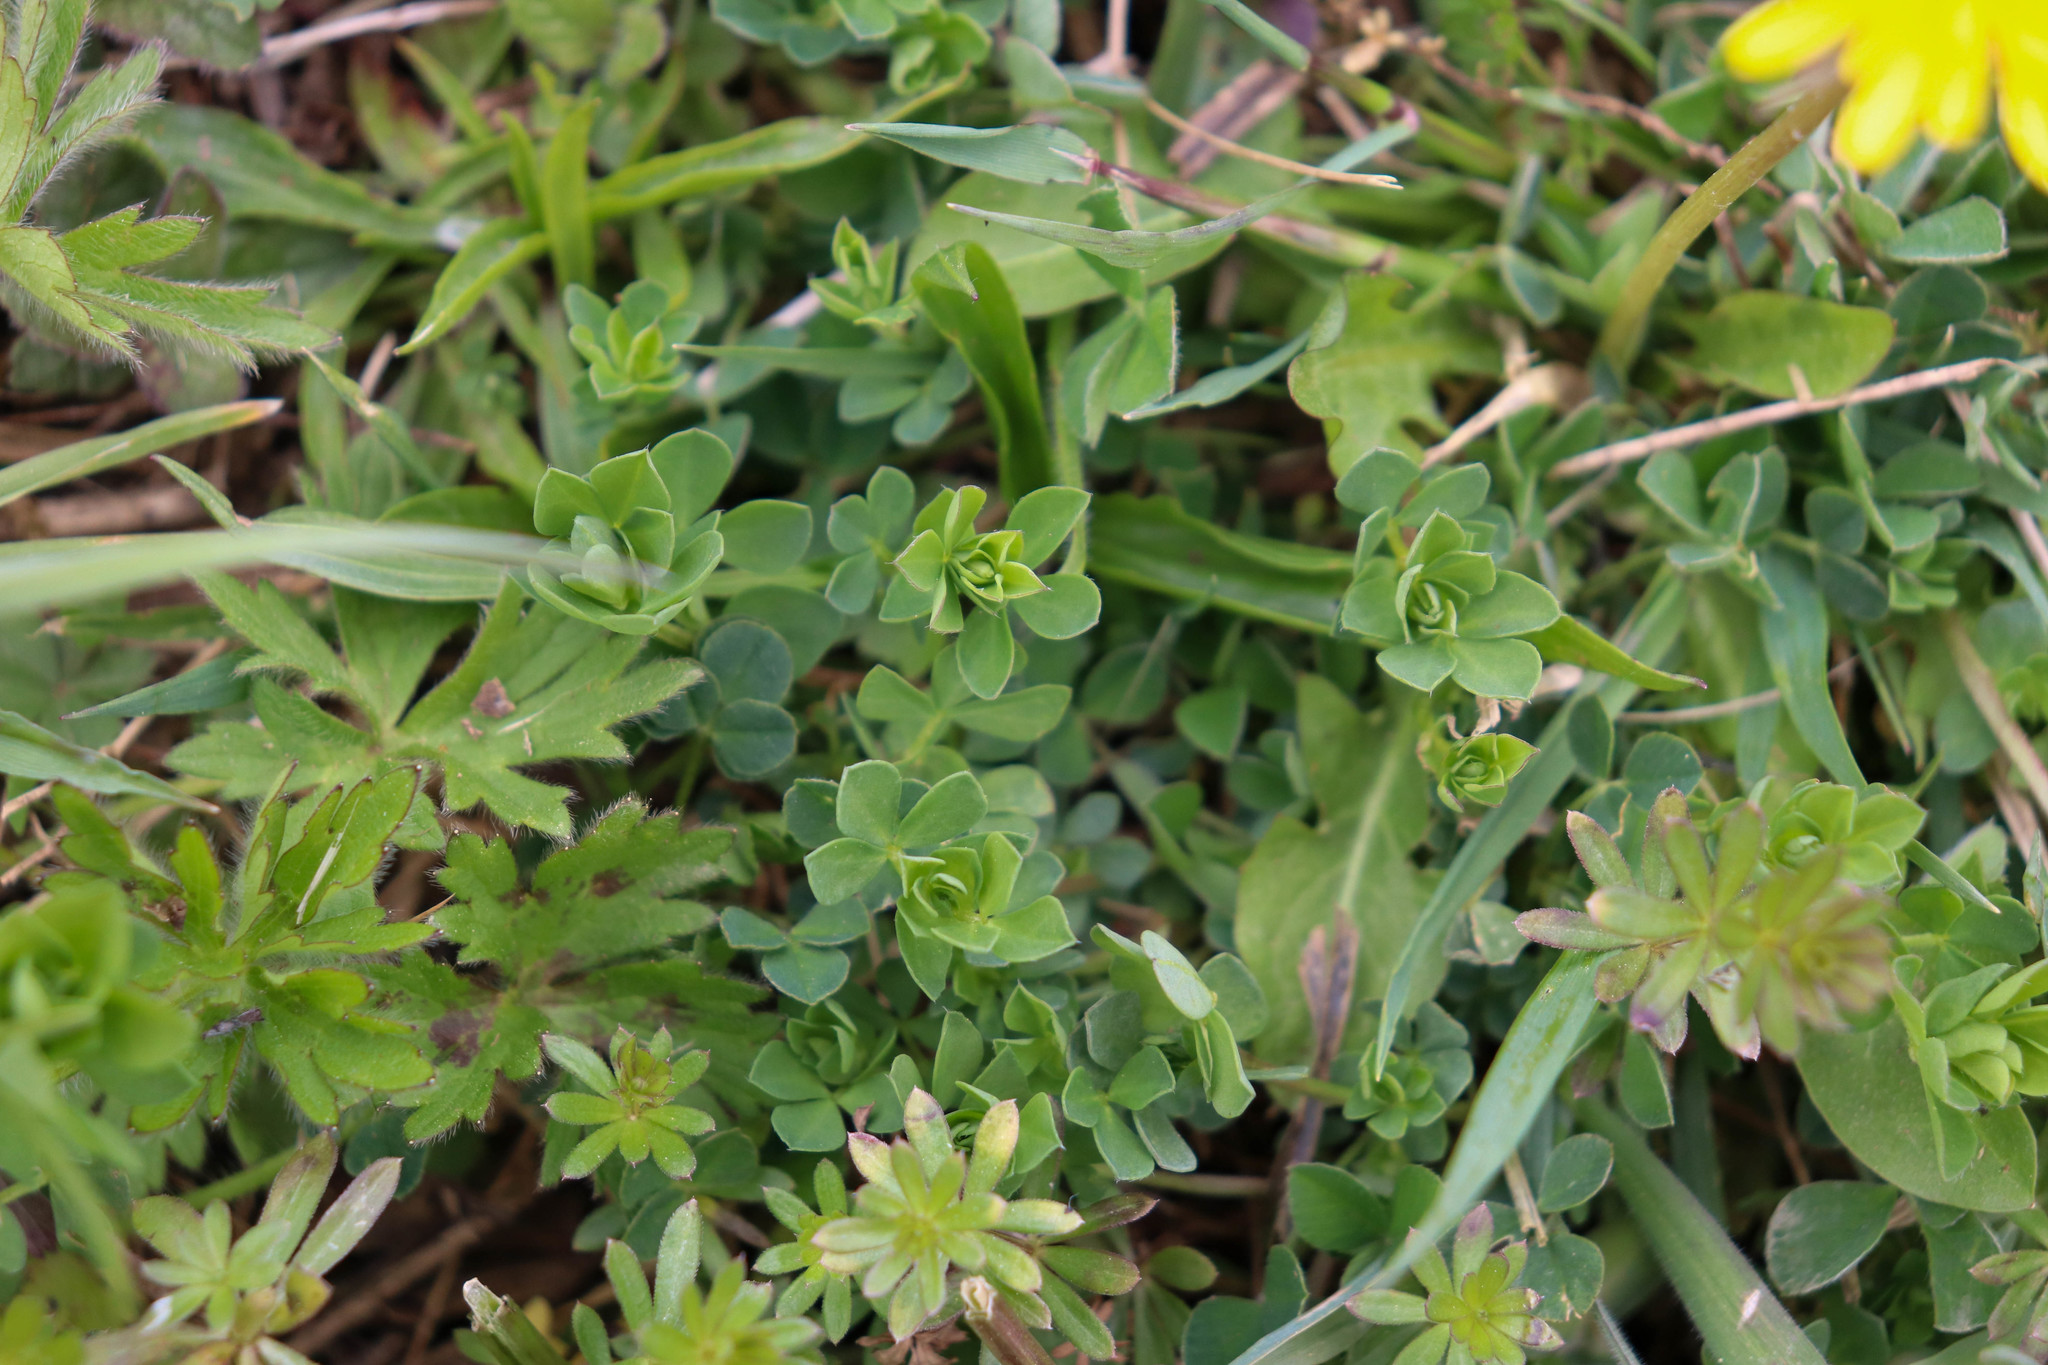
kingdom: Plantae
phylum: Tracheophyta
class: Magnoliopsida
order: Fabales
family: Fabaceae
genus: Lotus
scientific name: Lotus corniculatus
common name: Common bird's-foot-trefoil
